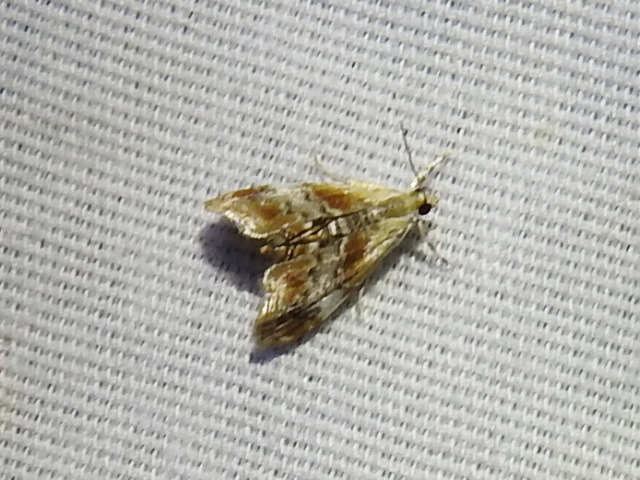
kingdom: Animalia
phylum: Arthropoda
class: Insecta
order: Lepidoptera
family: Crambidae
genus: Dicymolomia
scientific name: Dicymolomia julianalis
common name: Julia's dicymolomia moth
